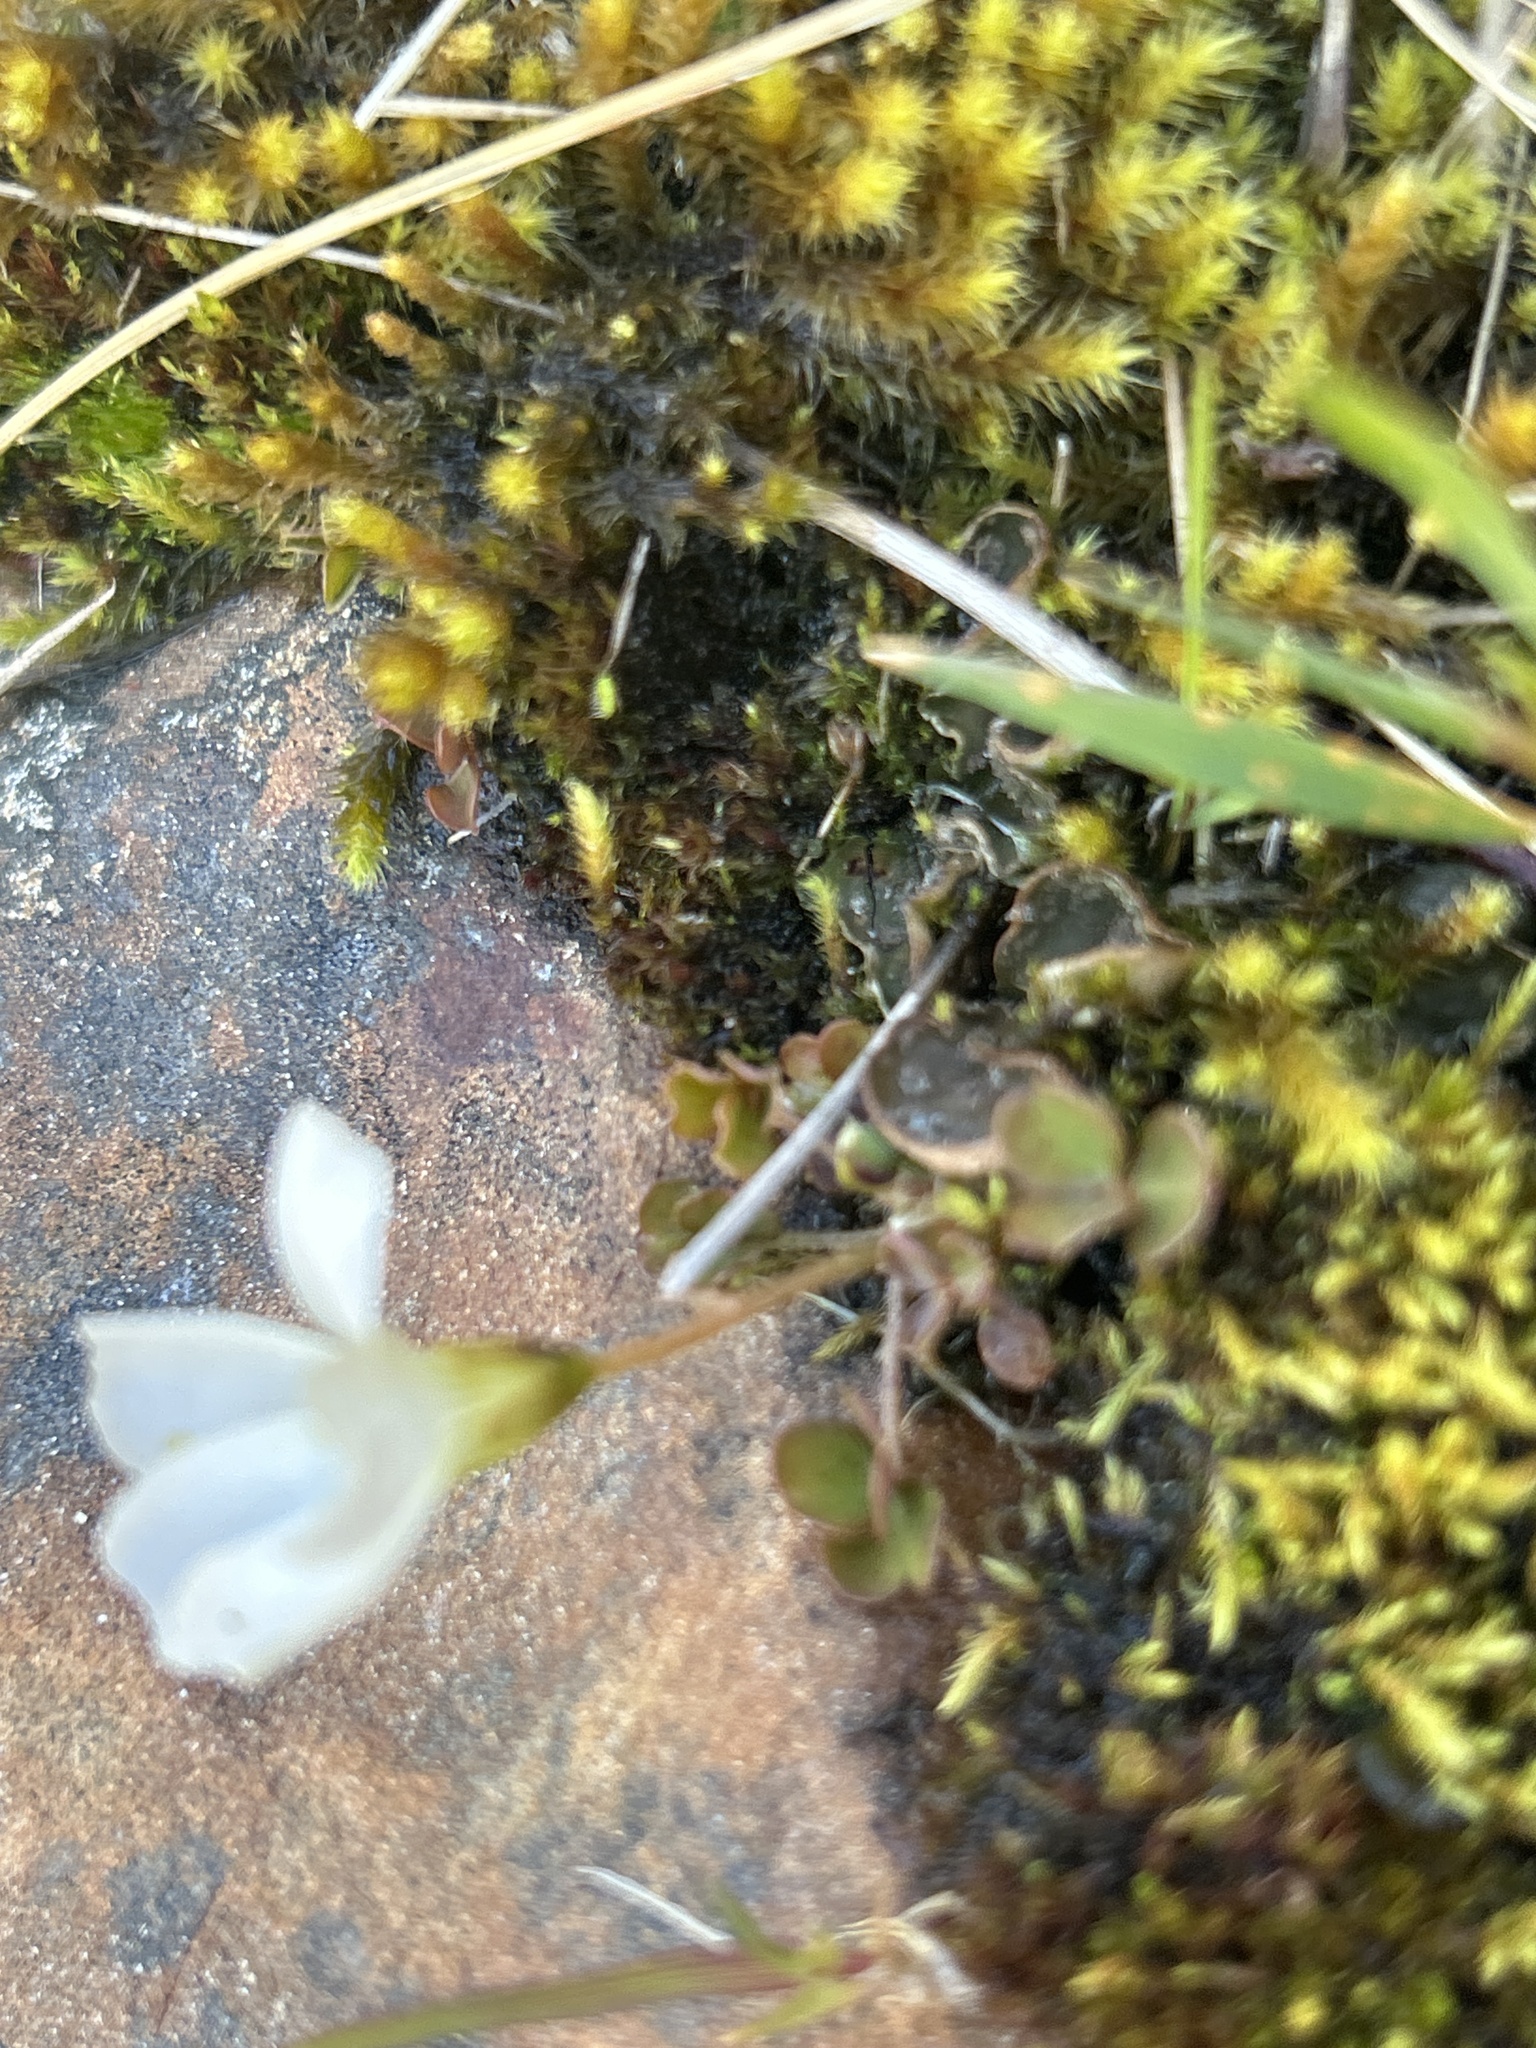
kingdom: Plantae
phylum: Tracheophyta
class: Magnoliopsida
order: Oxalidales
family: Oxalidaceae
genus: Oxalis
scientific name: Oxalis magellanica
